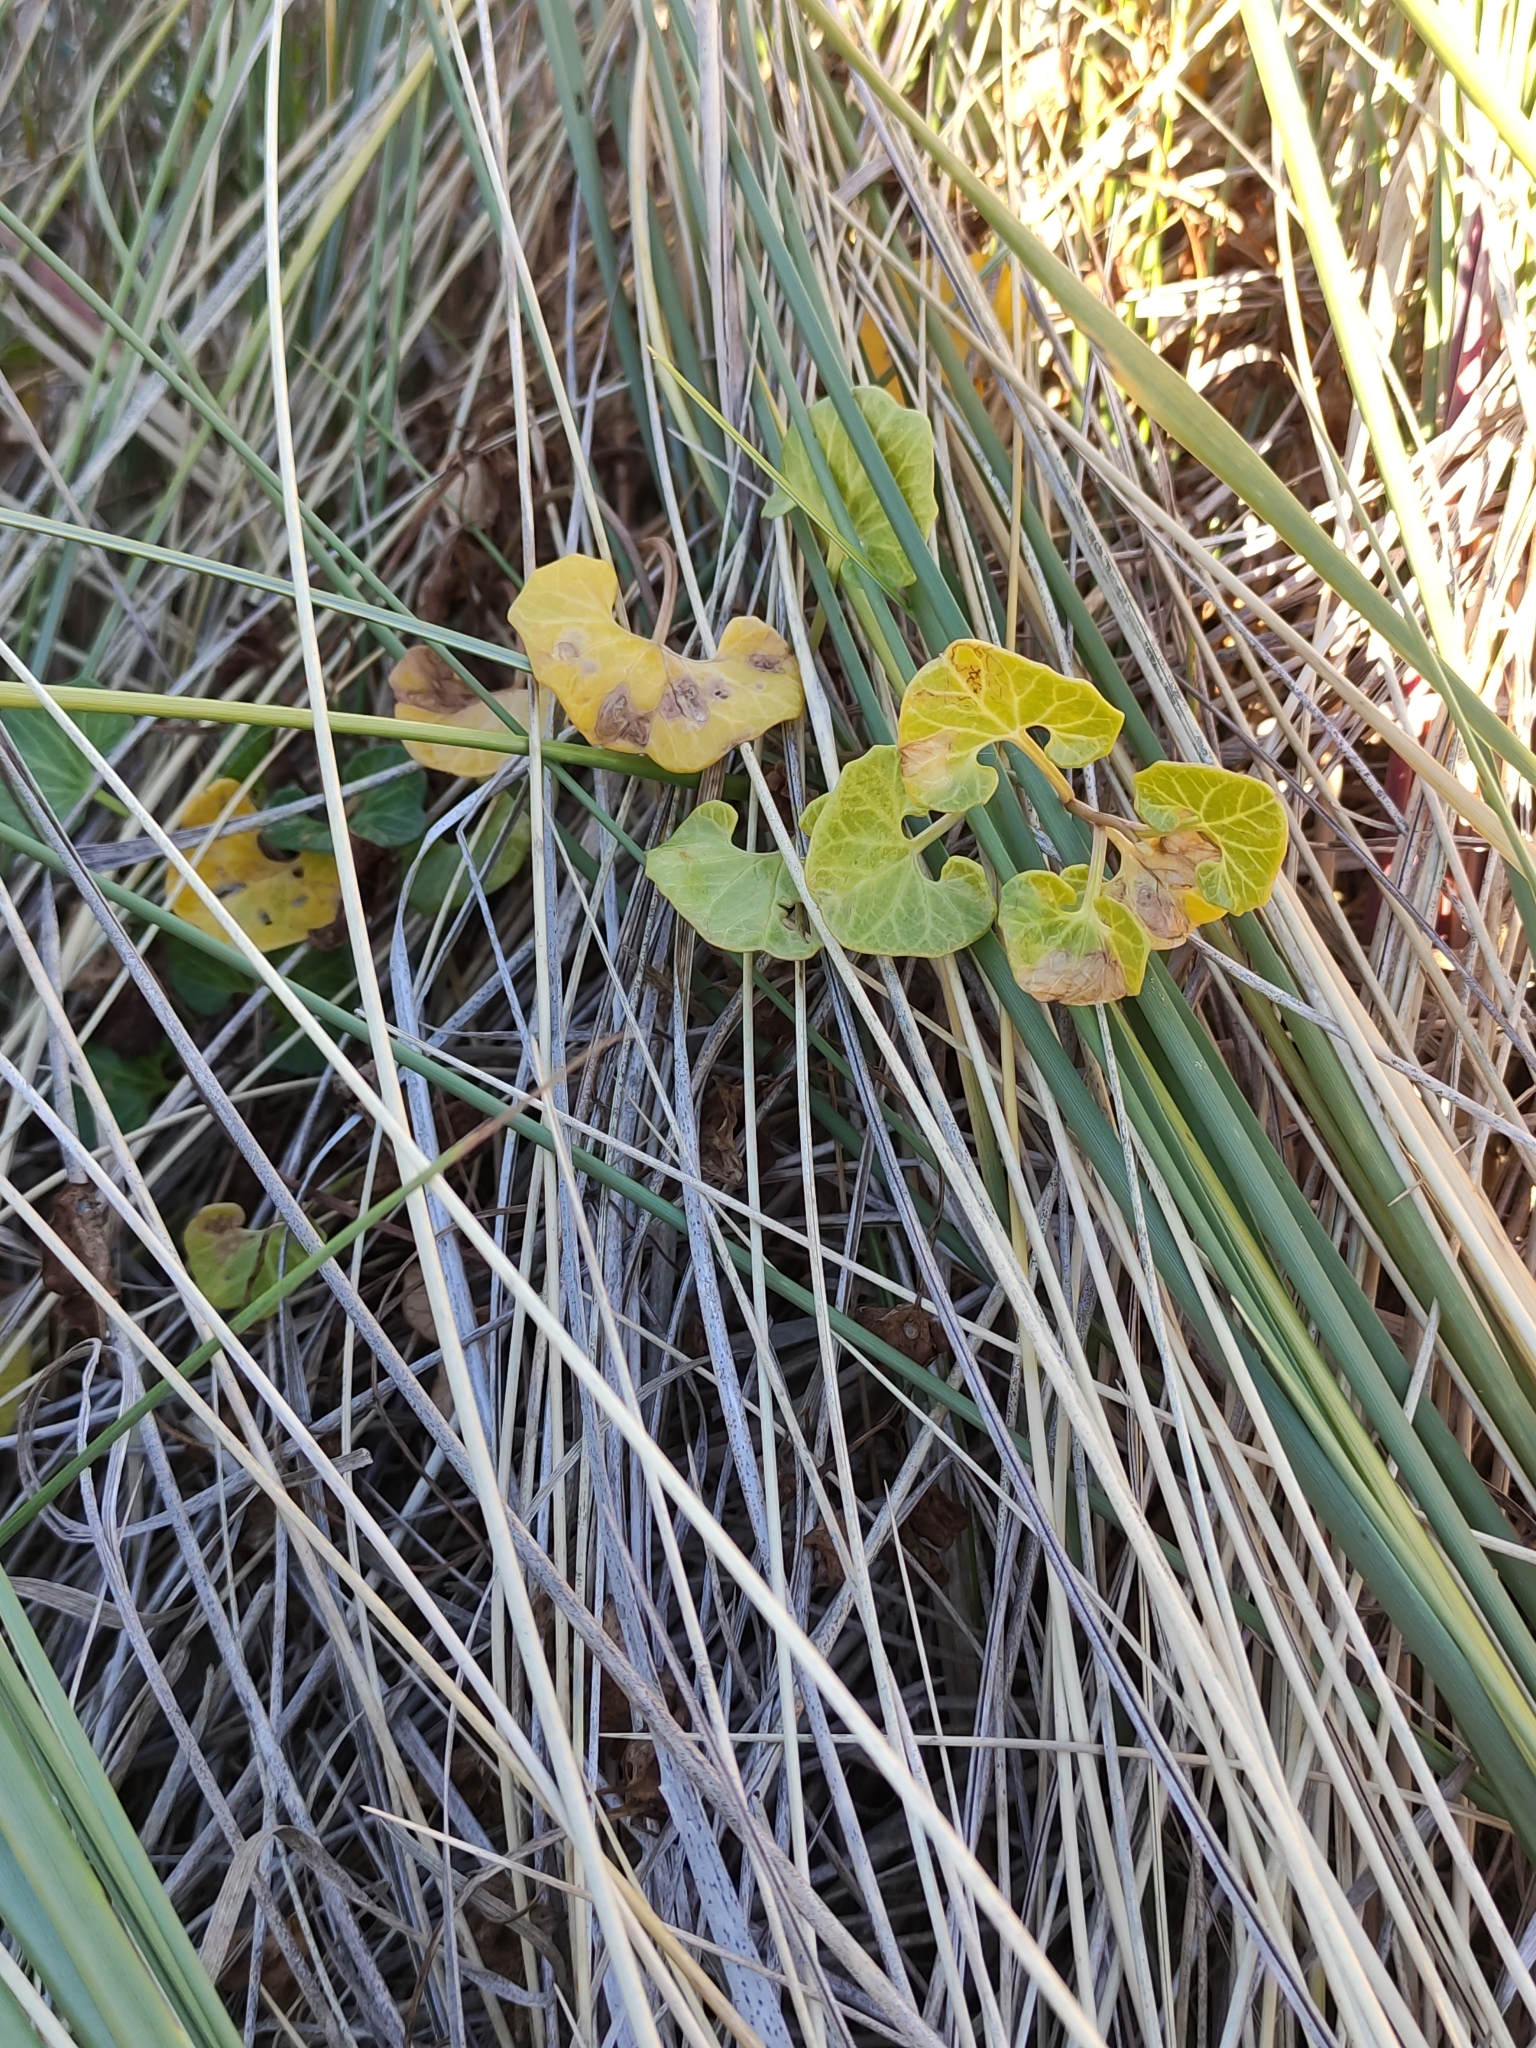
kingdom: Plantae
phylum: Tracheophyta
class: Magnoliopsida
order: Solanales
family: Convolvulaceae
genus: Calystegia
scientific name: Calystegia soldanella
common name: Sea bindweed
